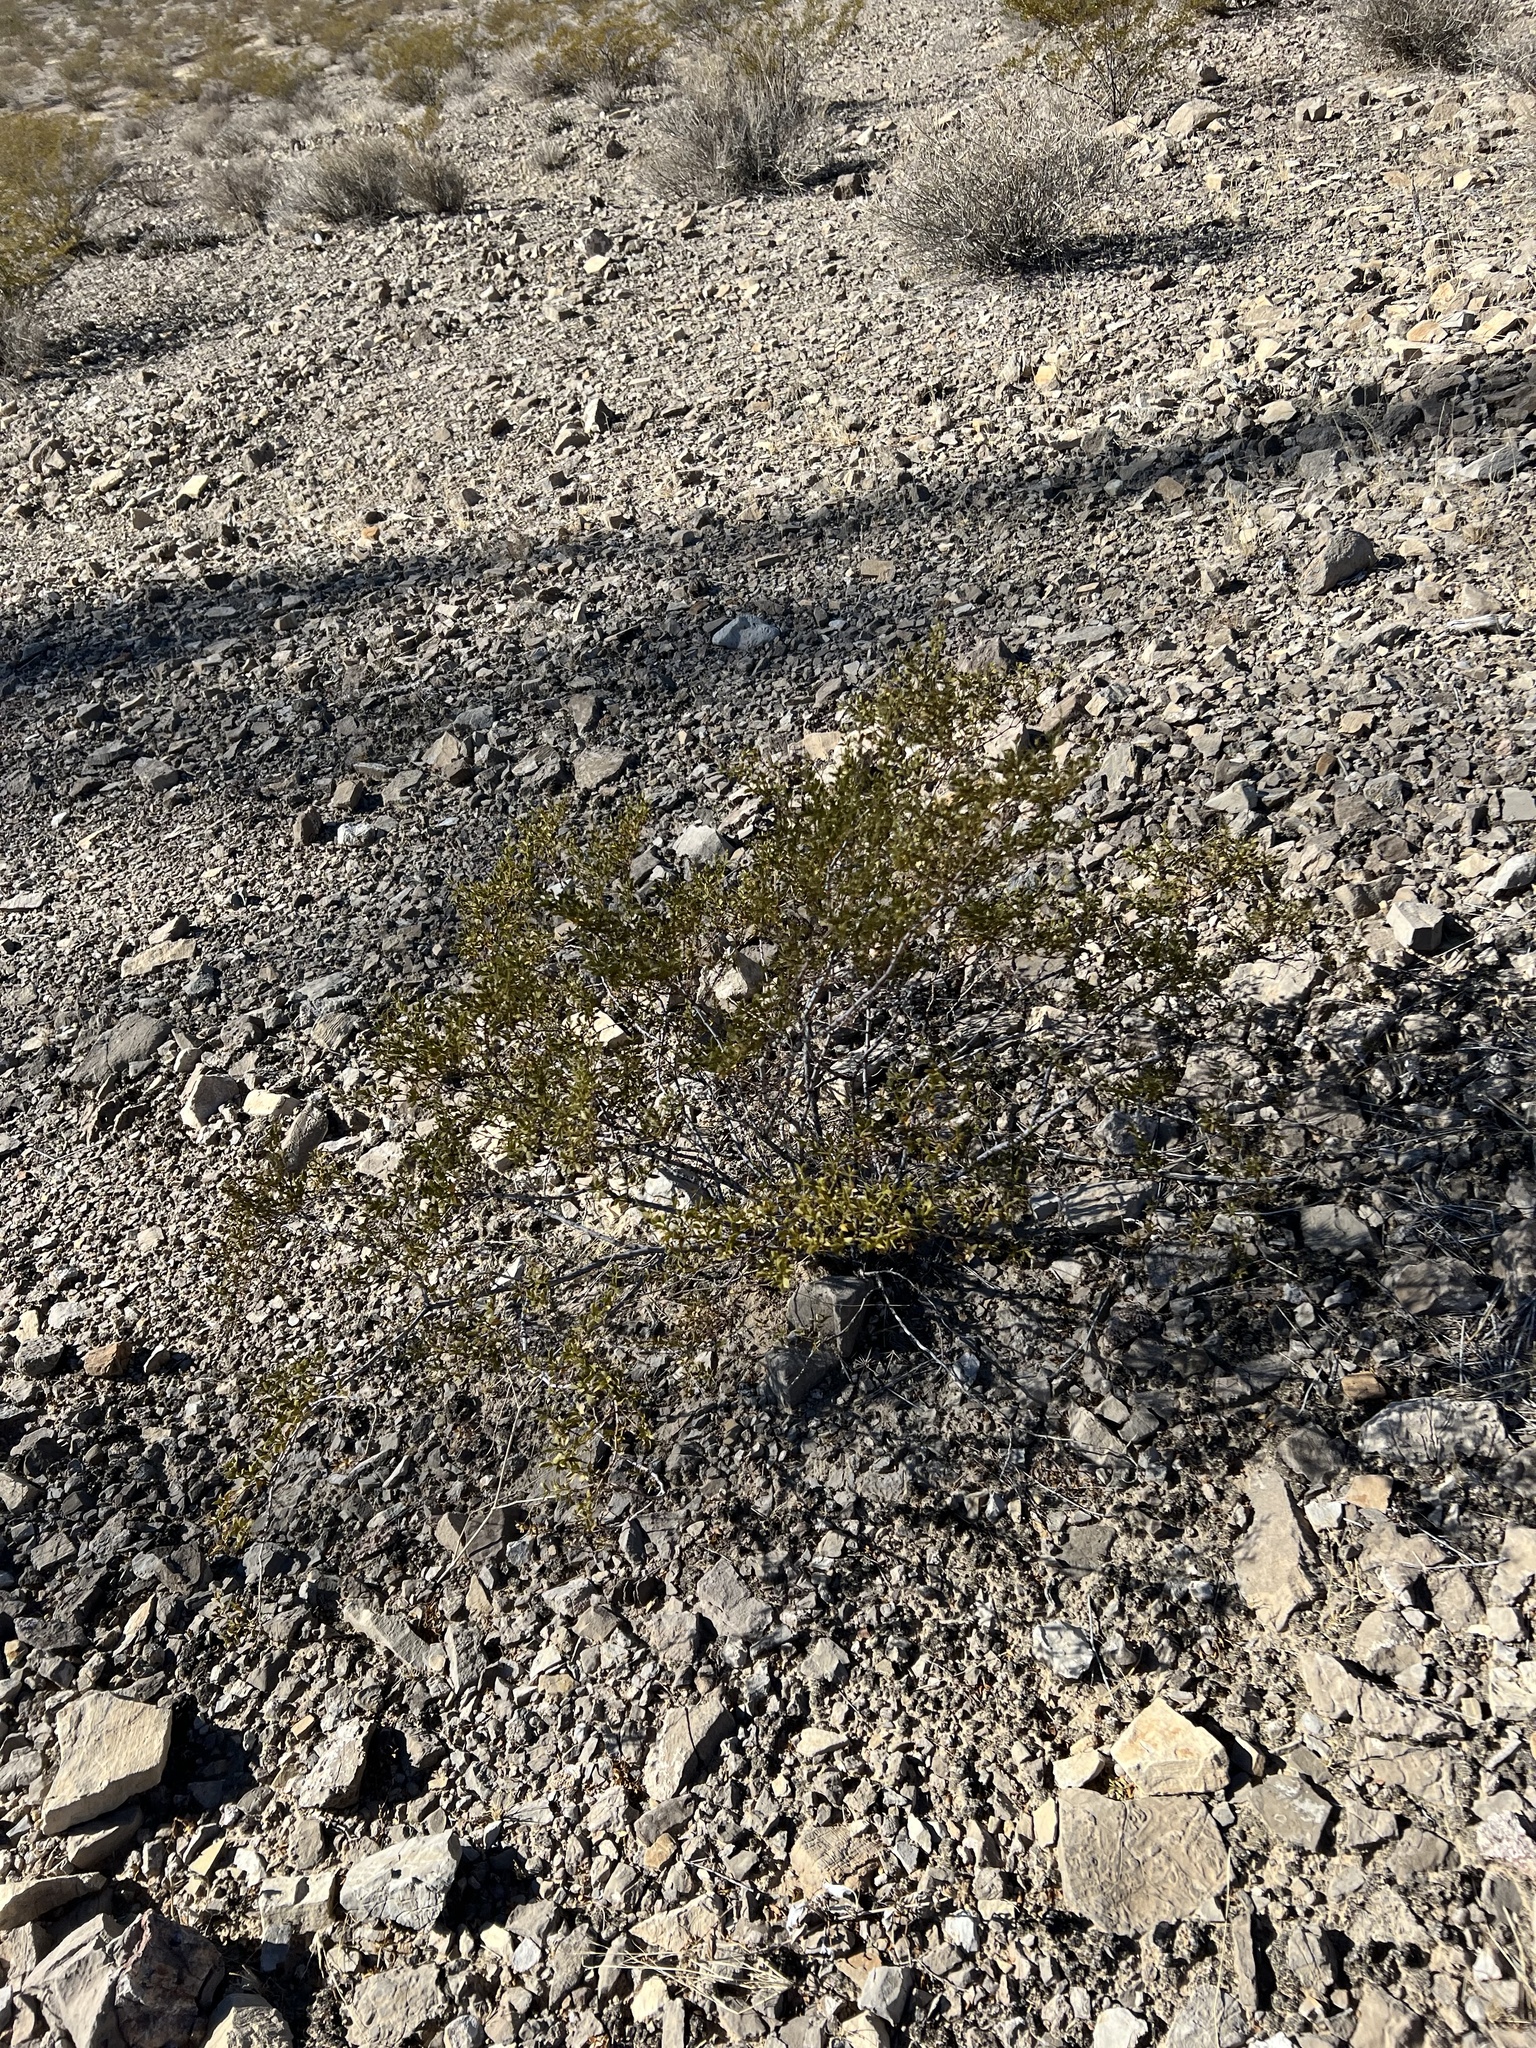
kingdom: Plantae
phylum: Tracheophyta
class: Magnoliopsida
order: Zygophyllales
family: Zygophyllaceae
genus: Larrea
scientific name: Larrea tridentata
